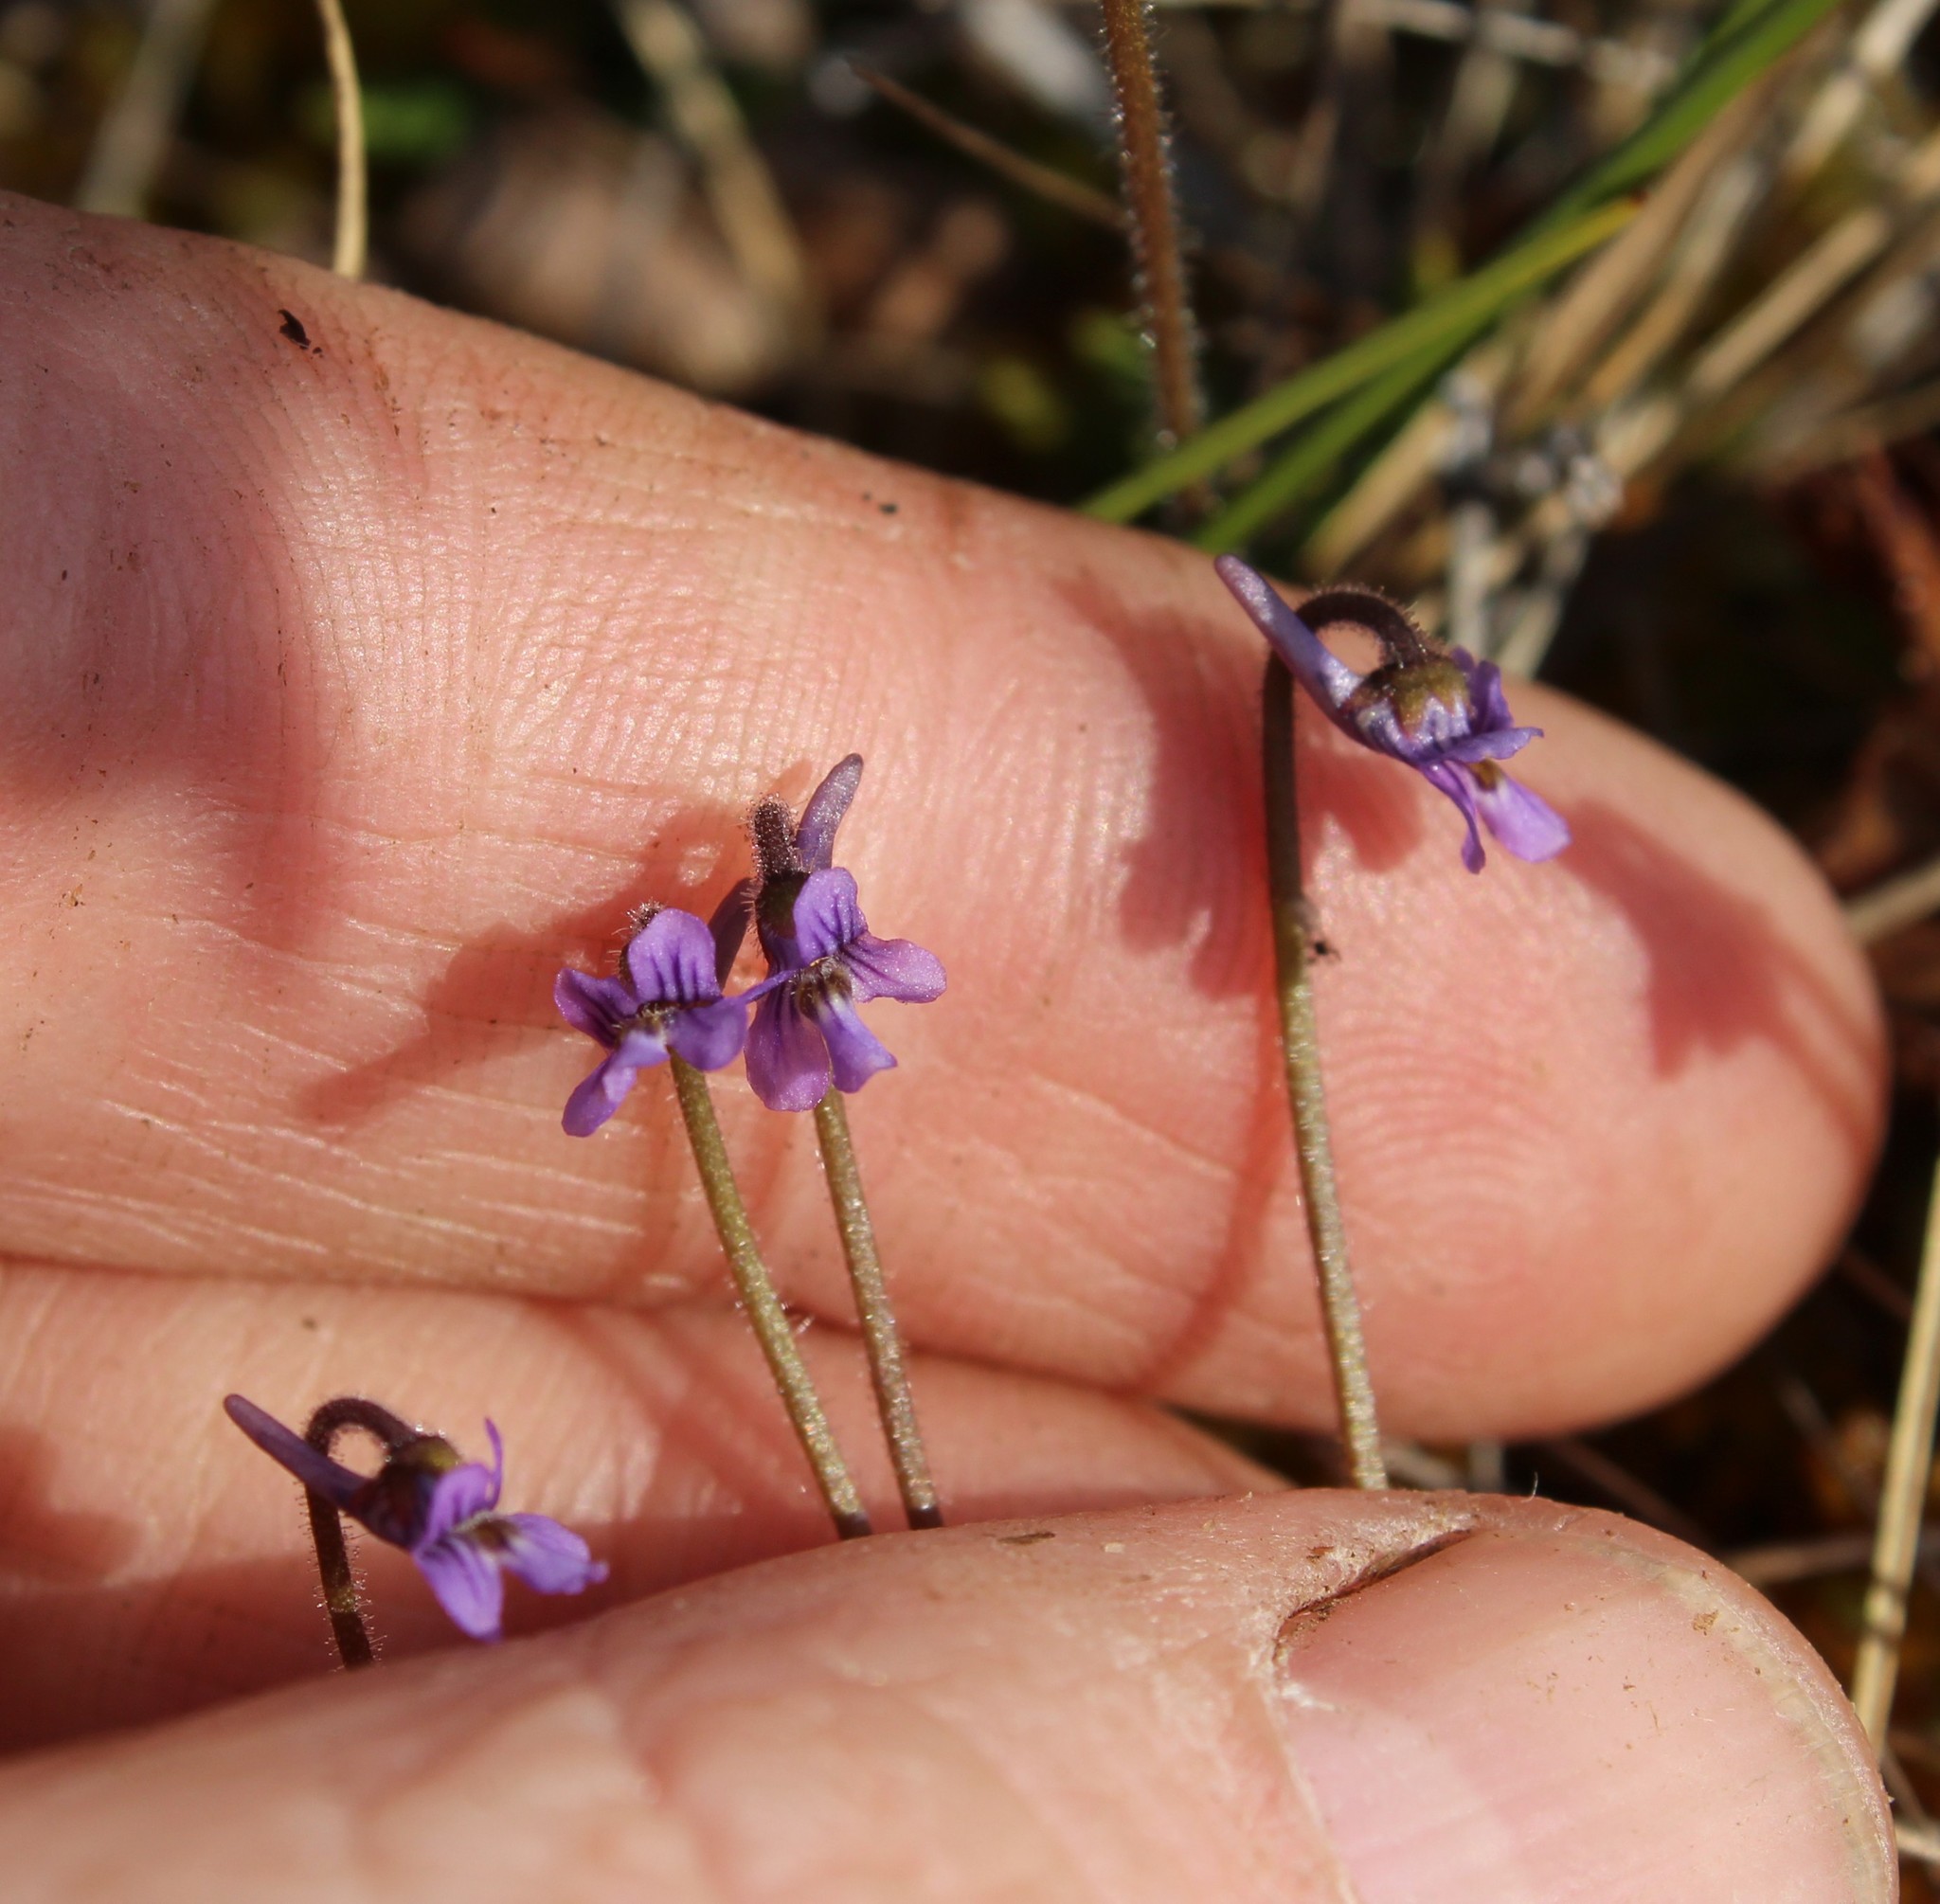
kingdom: Plantae
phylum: Tracheophyta
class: Magnoliopsida
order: Lamiales
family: Lentibulariaceae
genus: Pinguicula
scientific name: Pinguicula villosa
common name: Hairy butterwort
